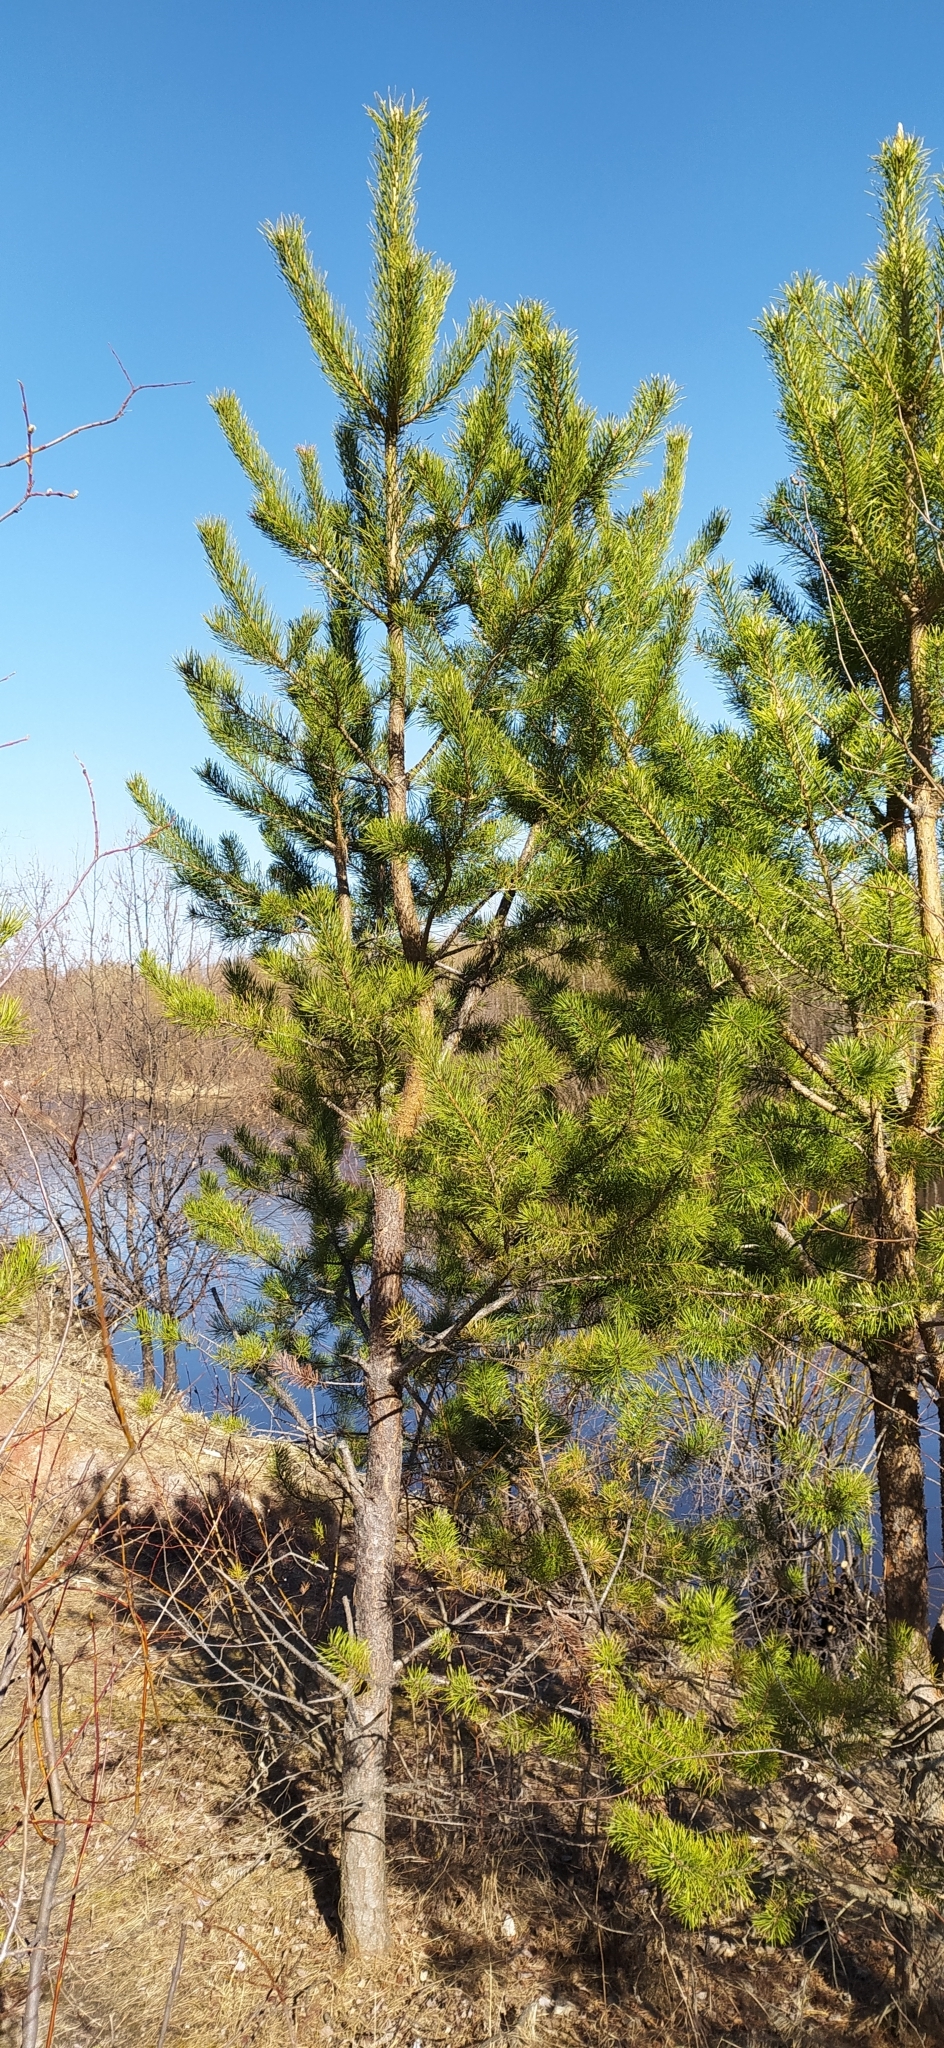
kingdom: Plantae
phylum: Tracheophyta
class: Pinopsida
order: Pinales
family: Pinaceae
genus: Pinus
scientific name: Pinus sylvestris
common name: Scots pine
